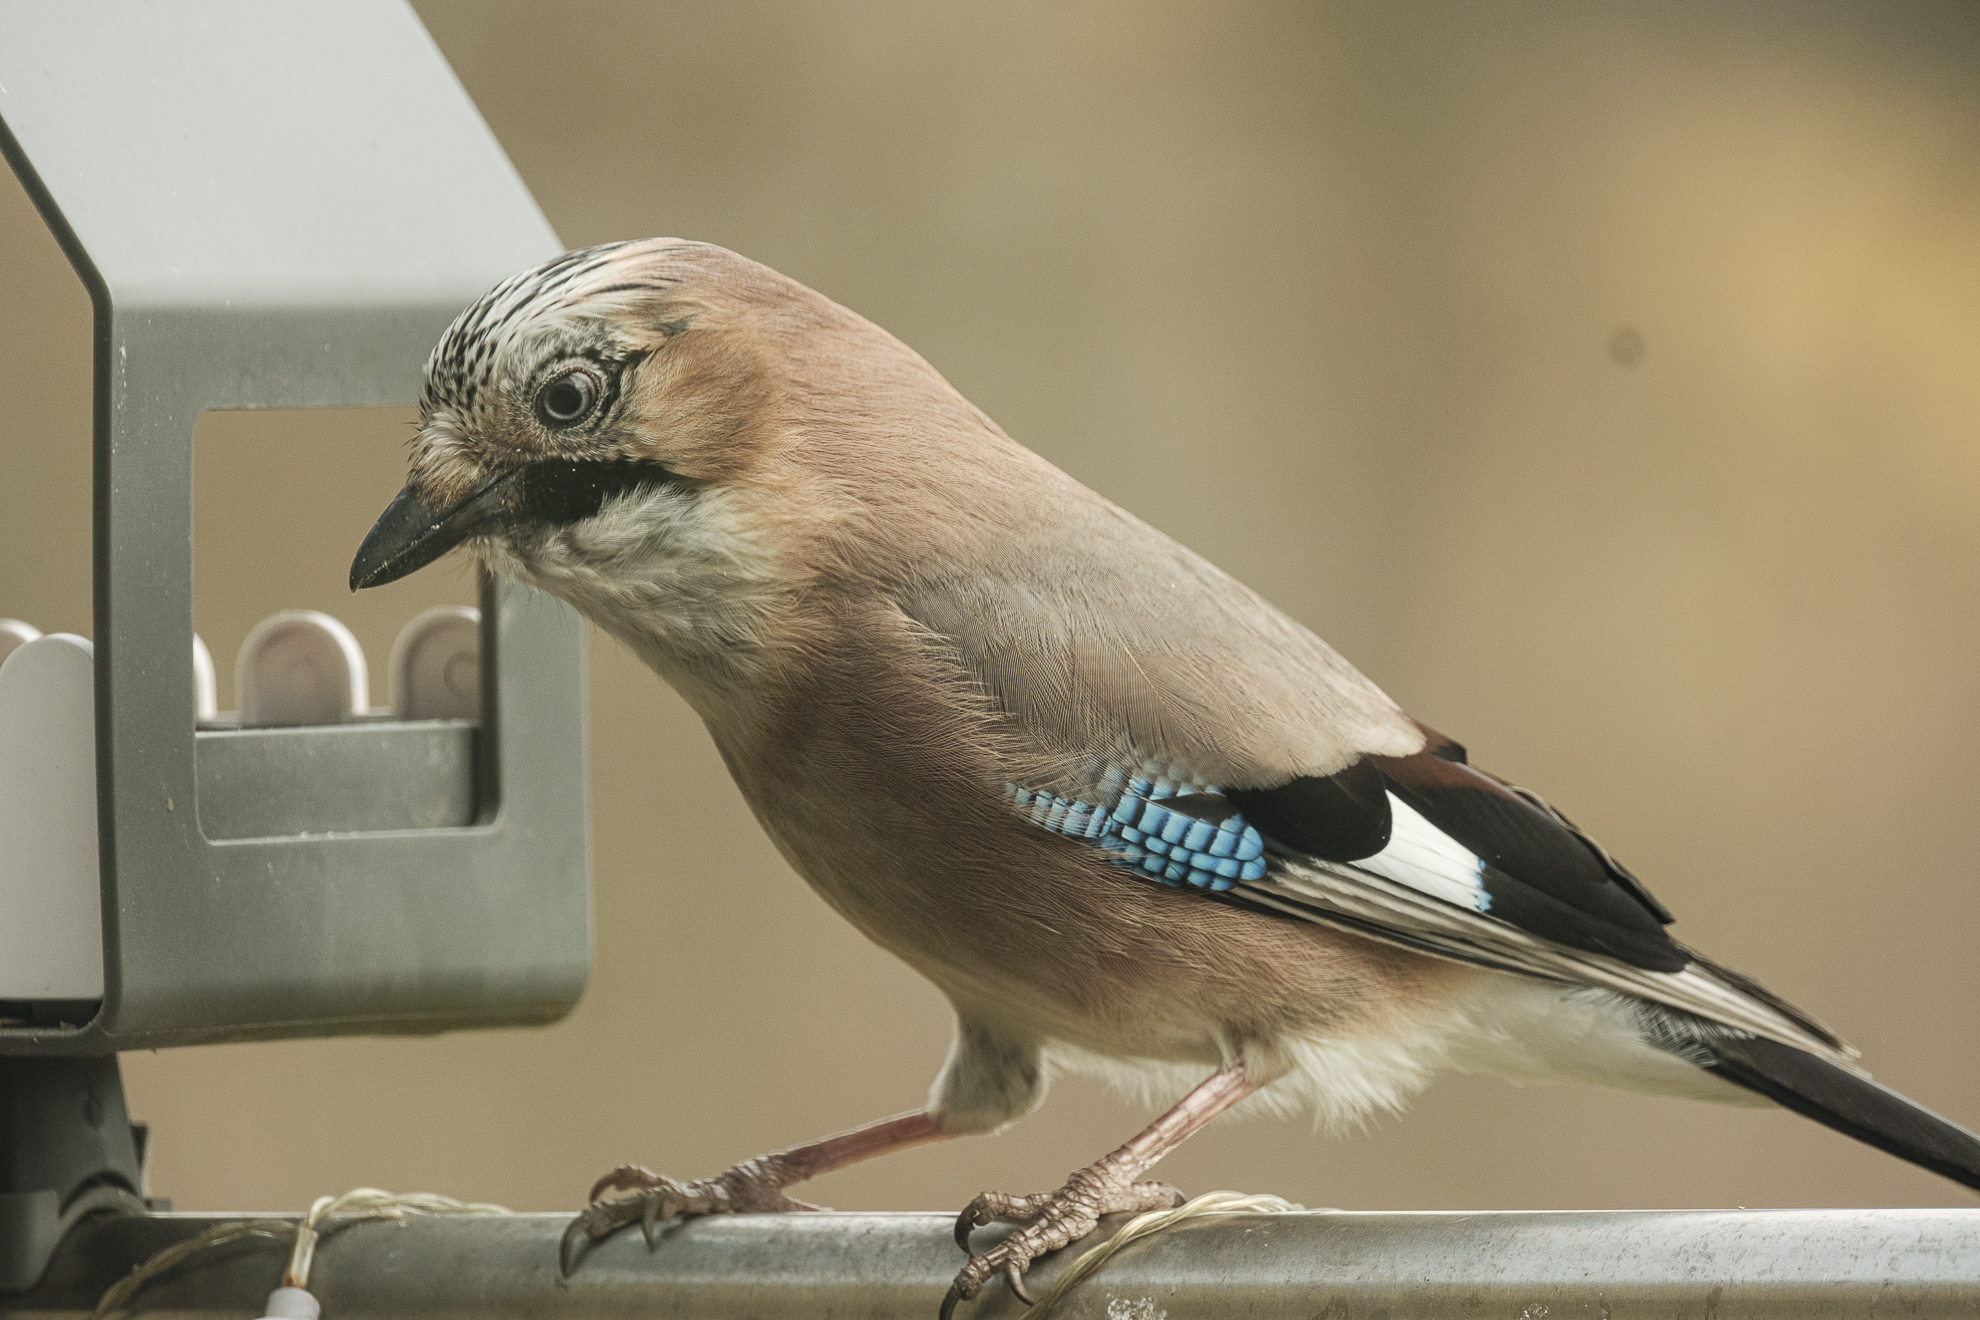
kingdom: Animalia
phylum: Chordata
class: Aves
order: Passeriformes
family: Corvidae
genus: Garrulus
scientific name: Garrulus glandarius
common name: Eurasian jay
